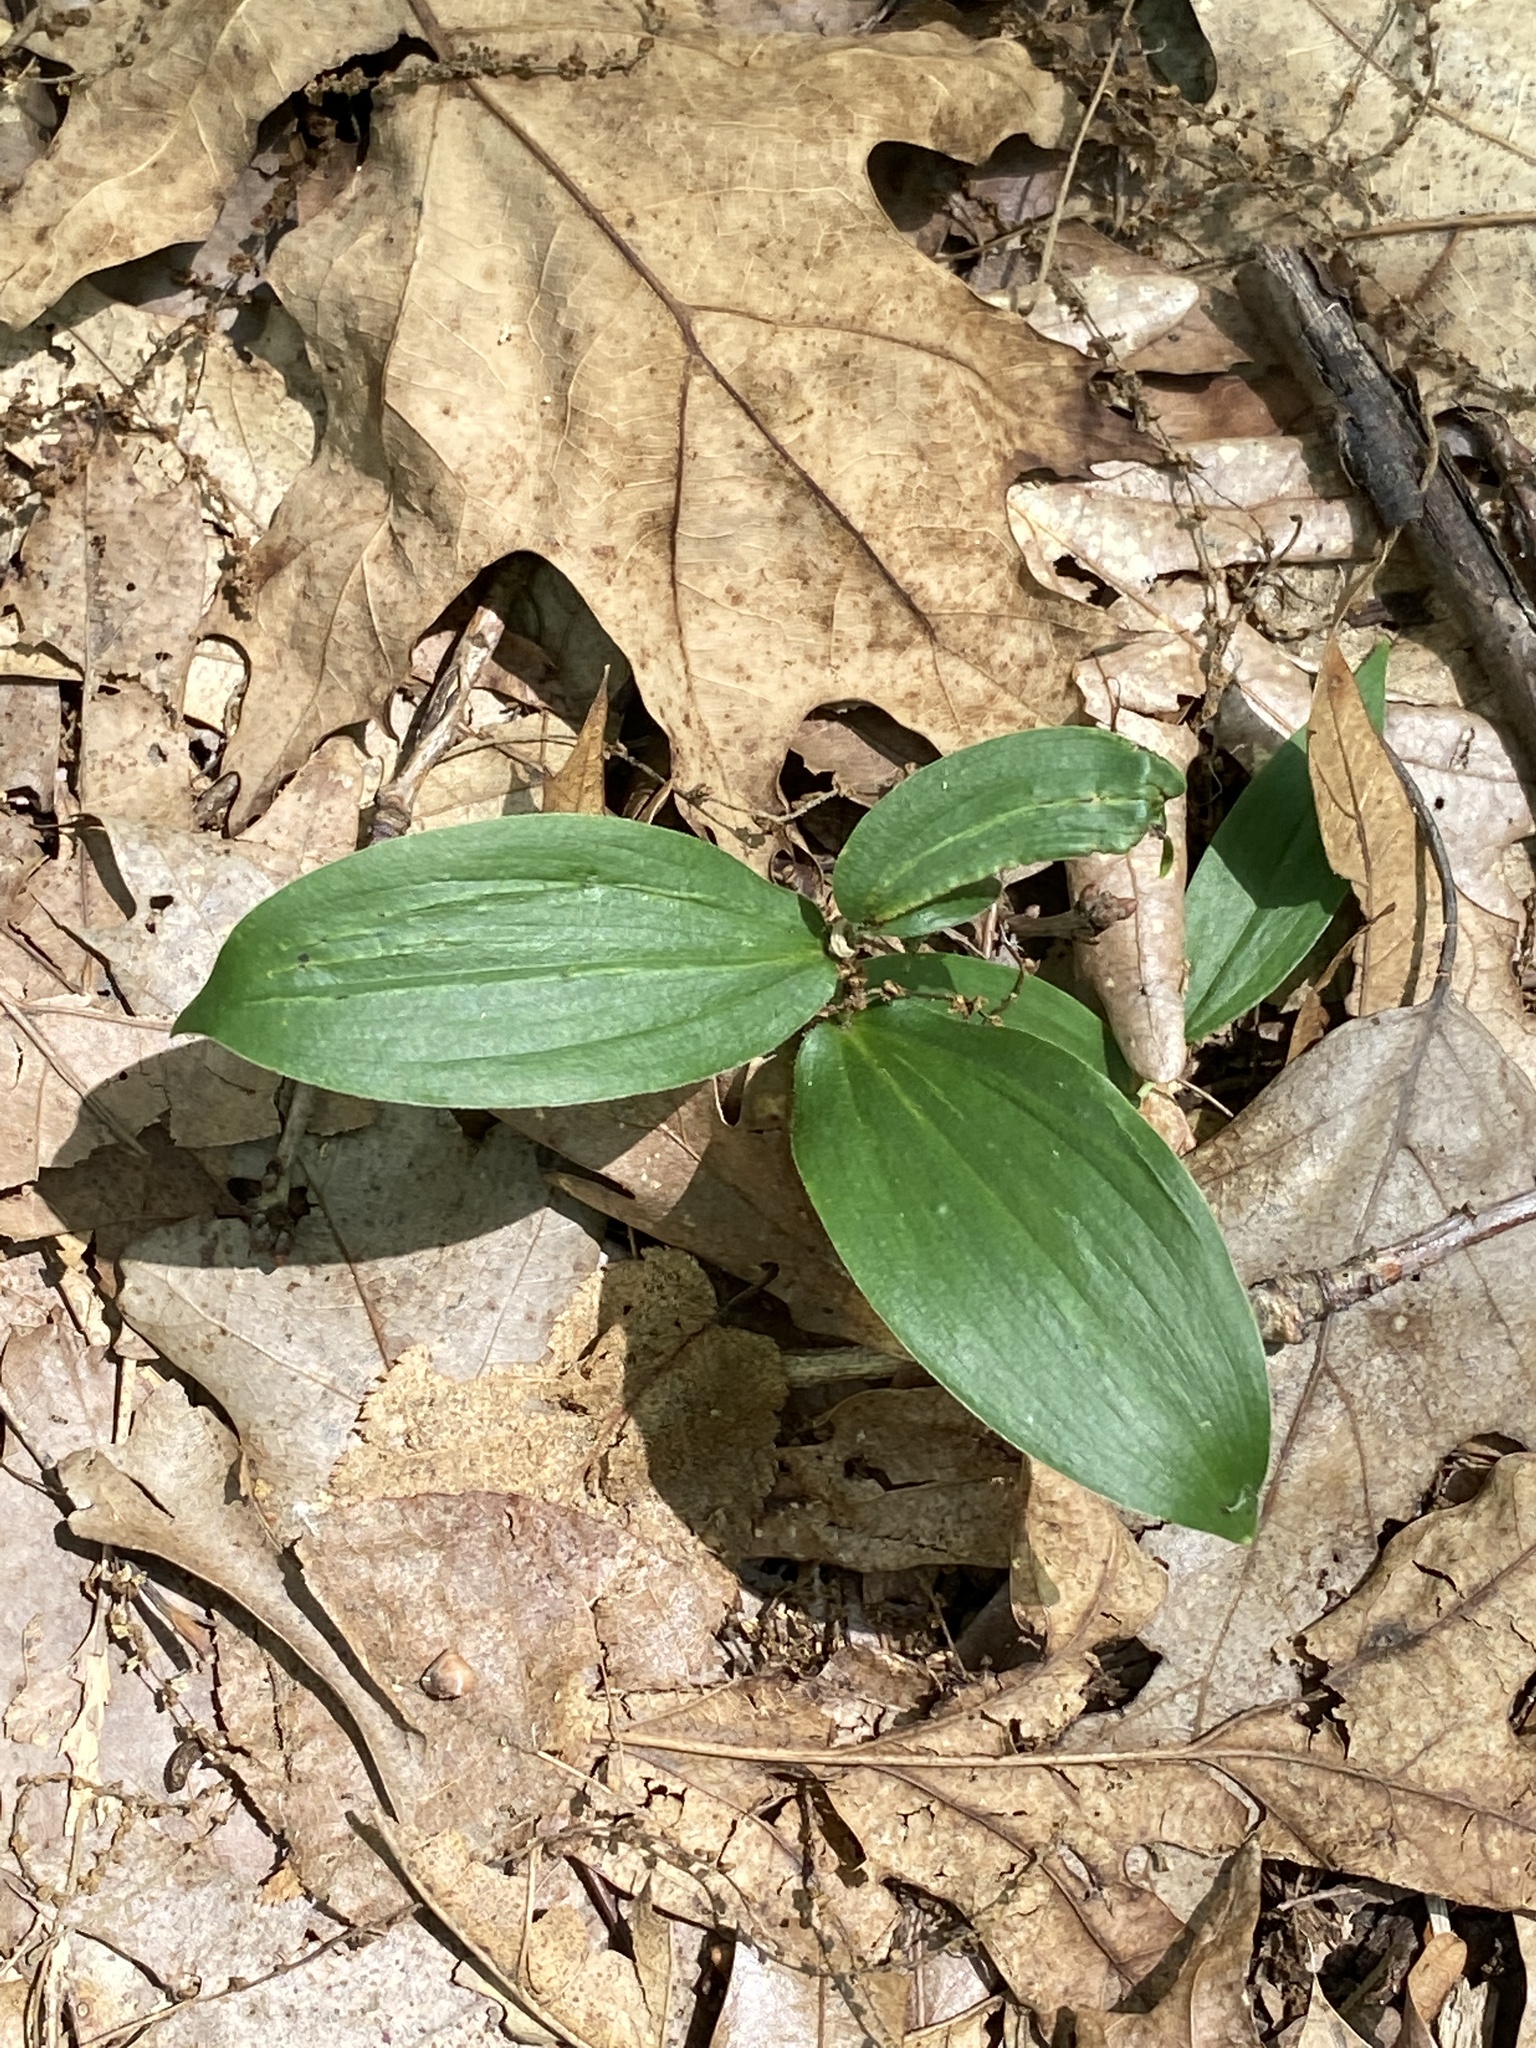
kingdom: Plantae
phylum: Tracheophyta
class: Liliopsida
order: Asparagales
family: Asparagaceae
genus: Maianthemum
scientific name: Maianthemum racemosum
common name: False spikenard
